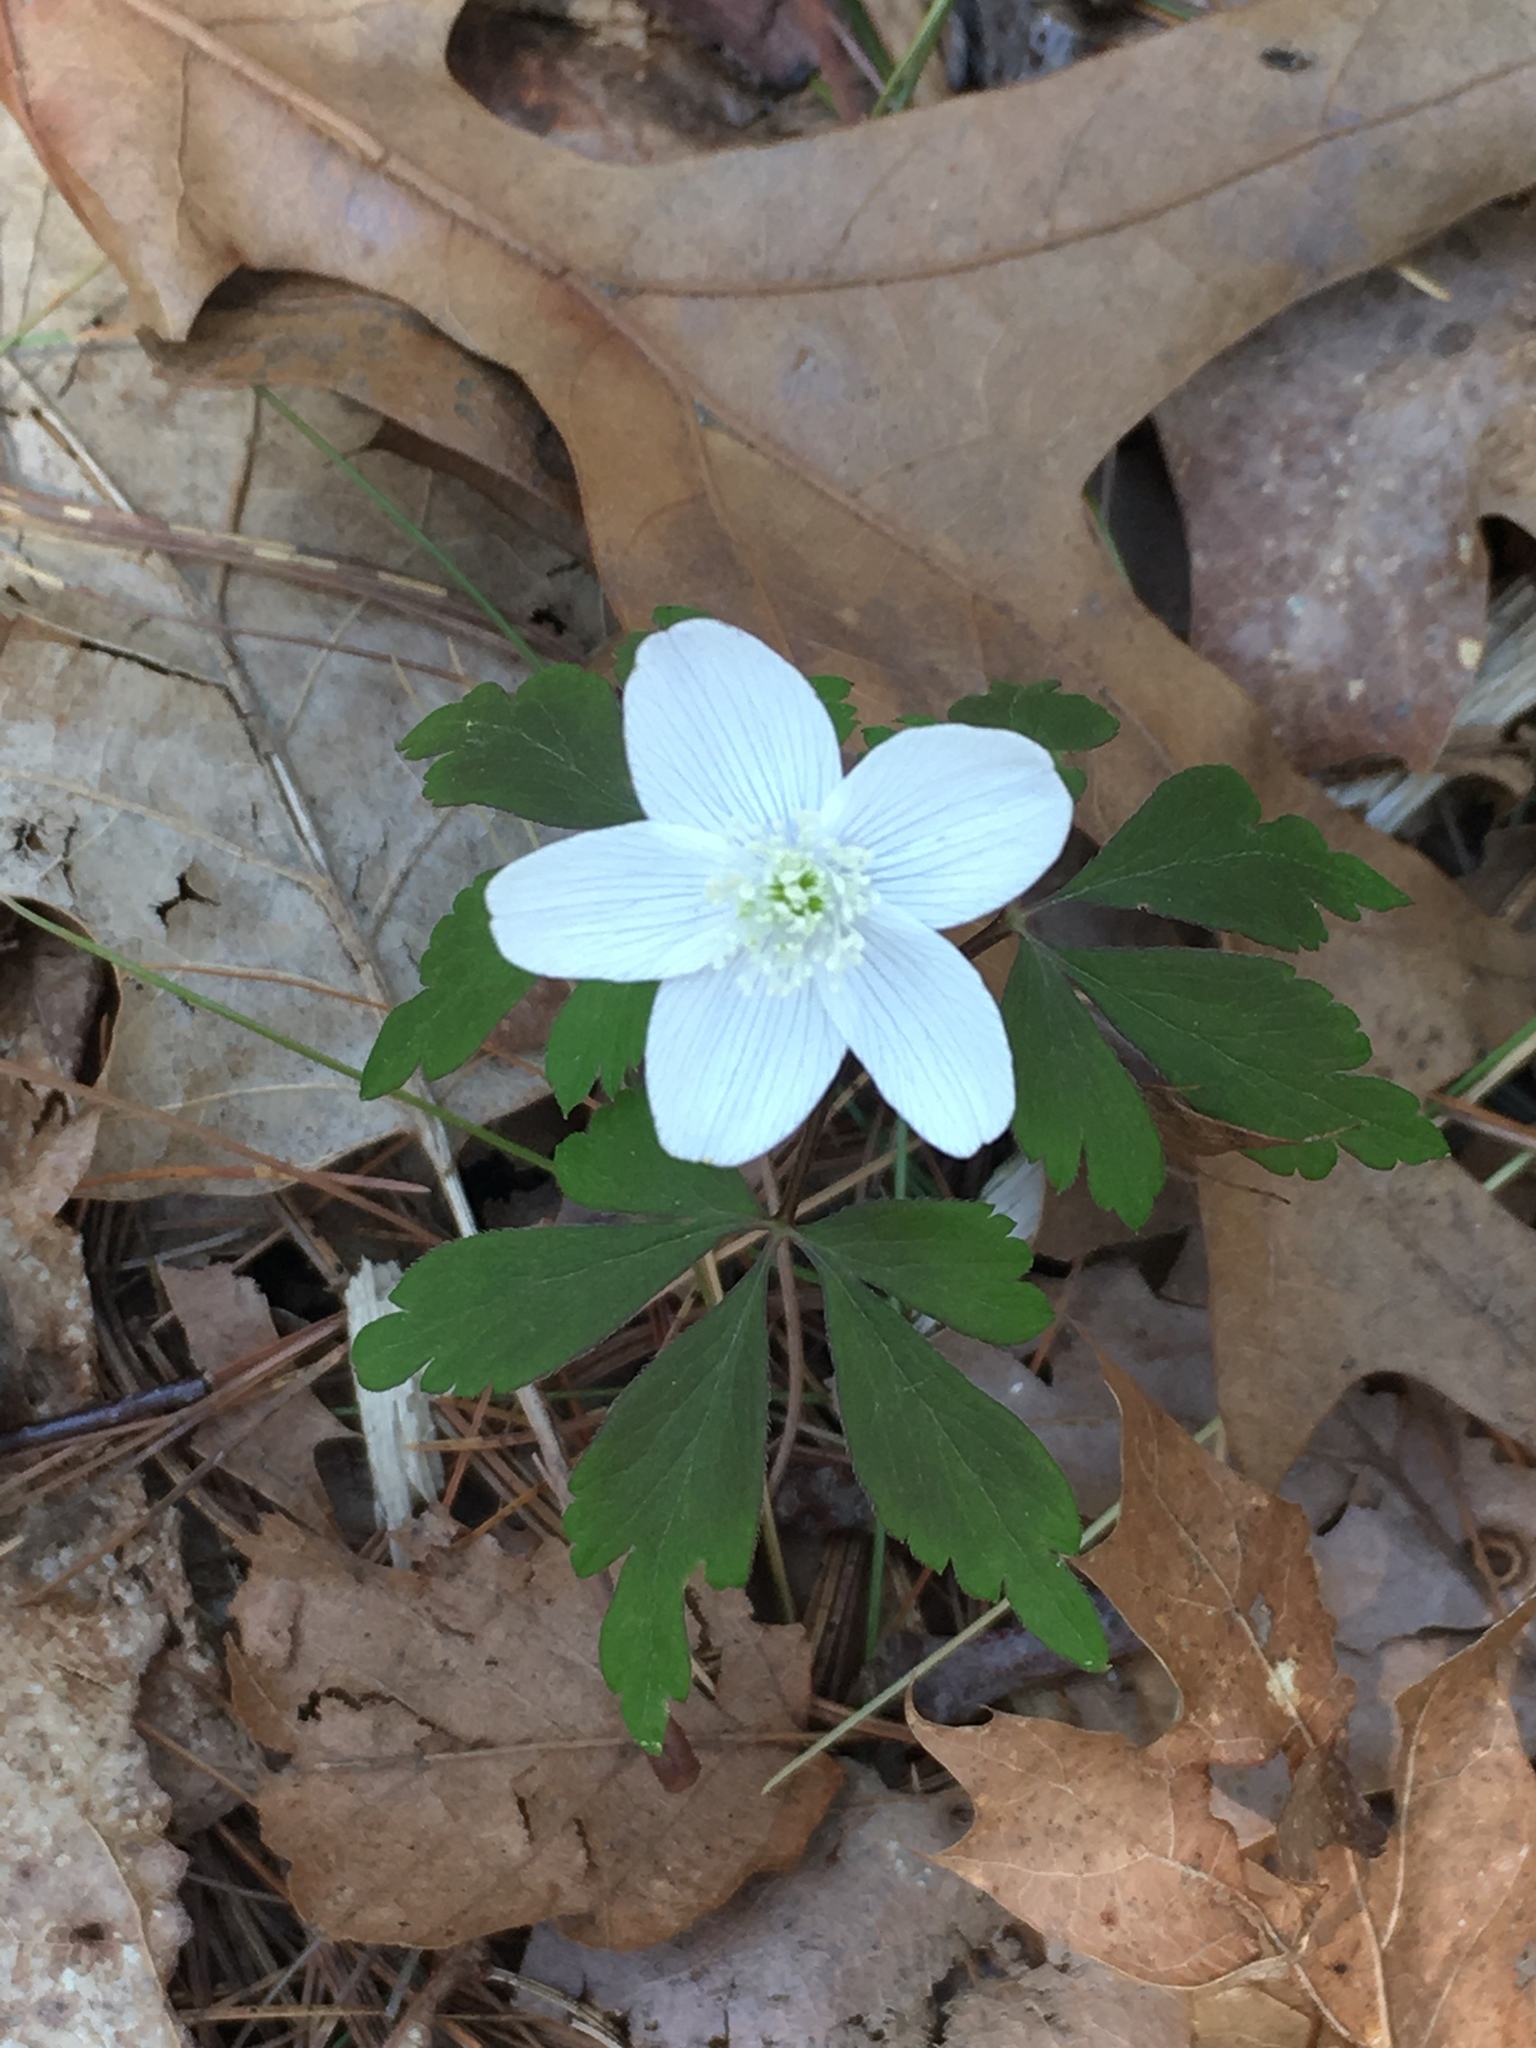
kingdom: Plantae
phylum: Tracheophyta
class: Magnoliopsida
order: Ranunculales
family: Ranunculaceae
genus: Anemone
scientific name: Anemone quinquefolia
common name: Wood anemone
